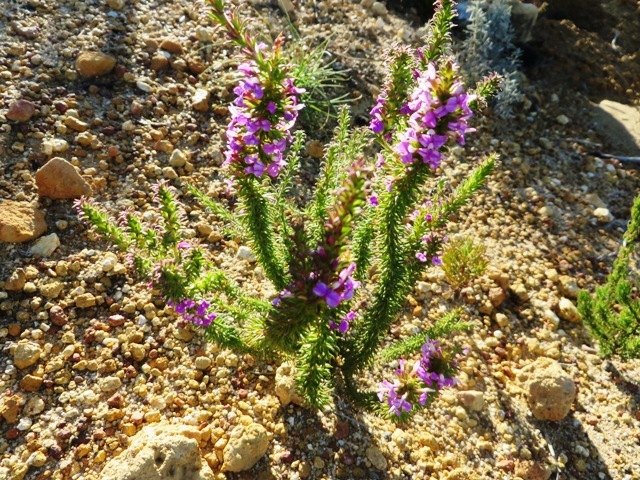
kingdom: Plantae
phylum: Tracheophyta
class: Magnoliopsida
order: Fabales
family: Polygalaceae
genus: Muraltia
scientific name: Muraltia heisteria
